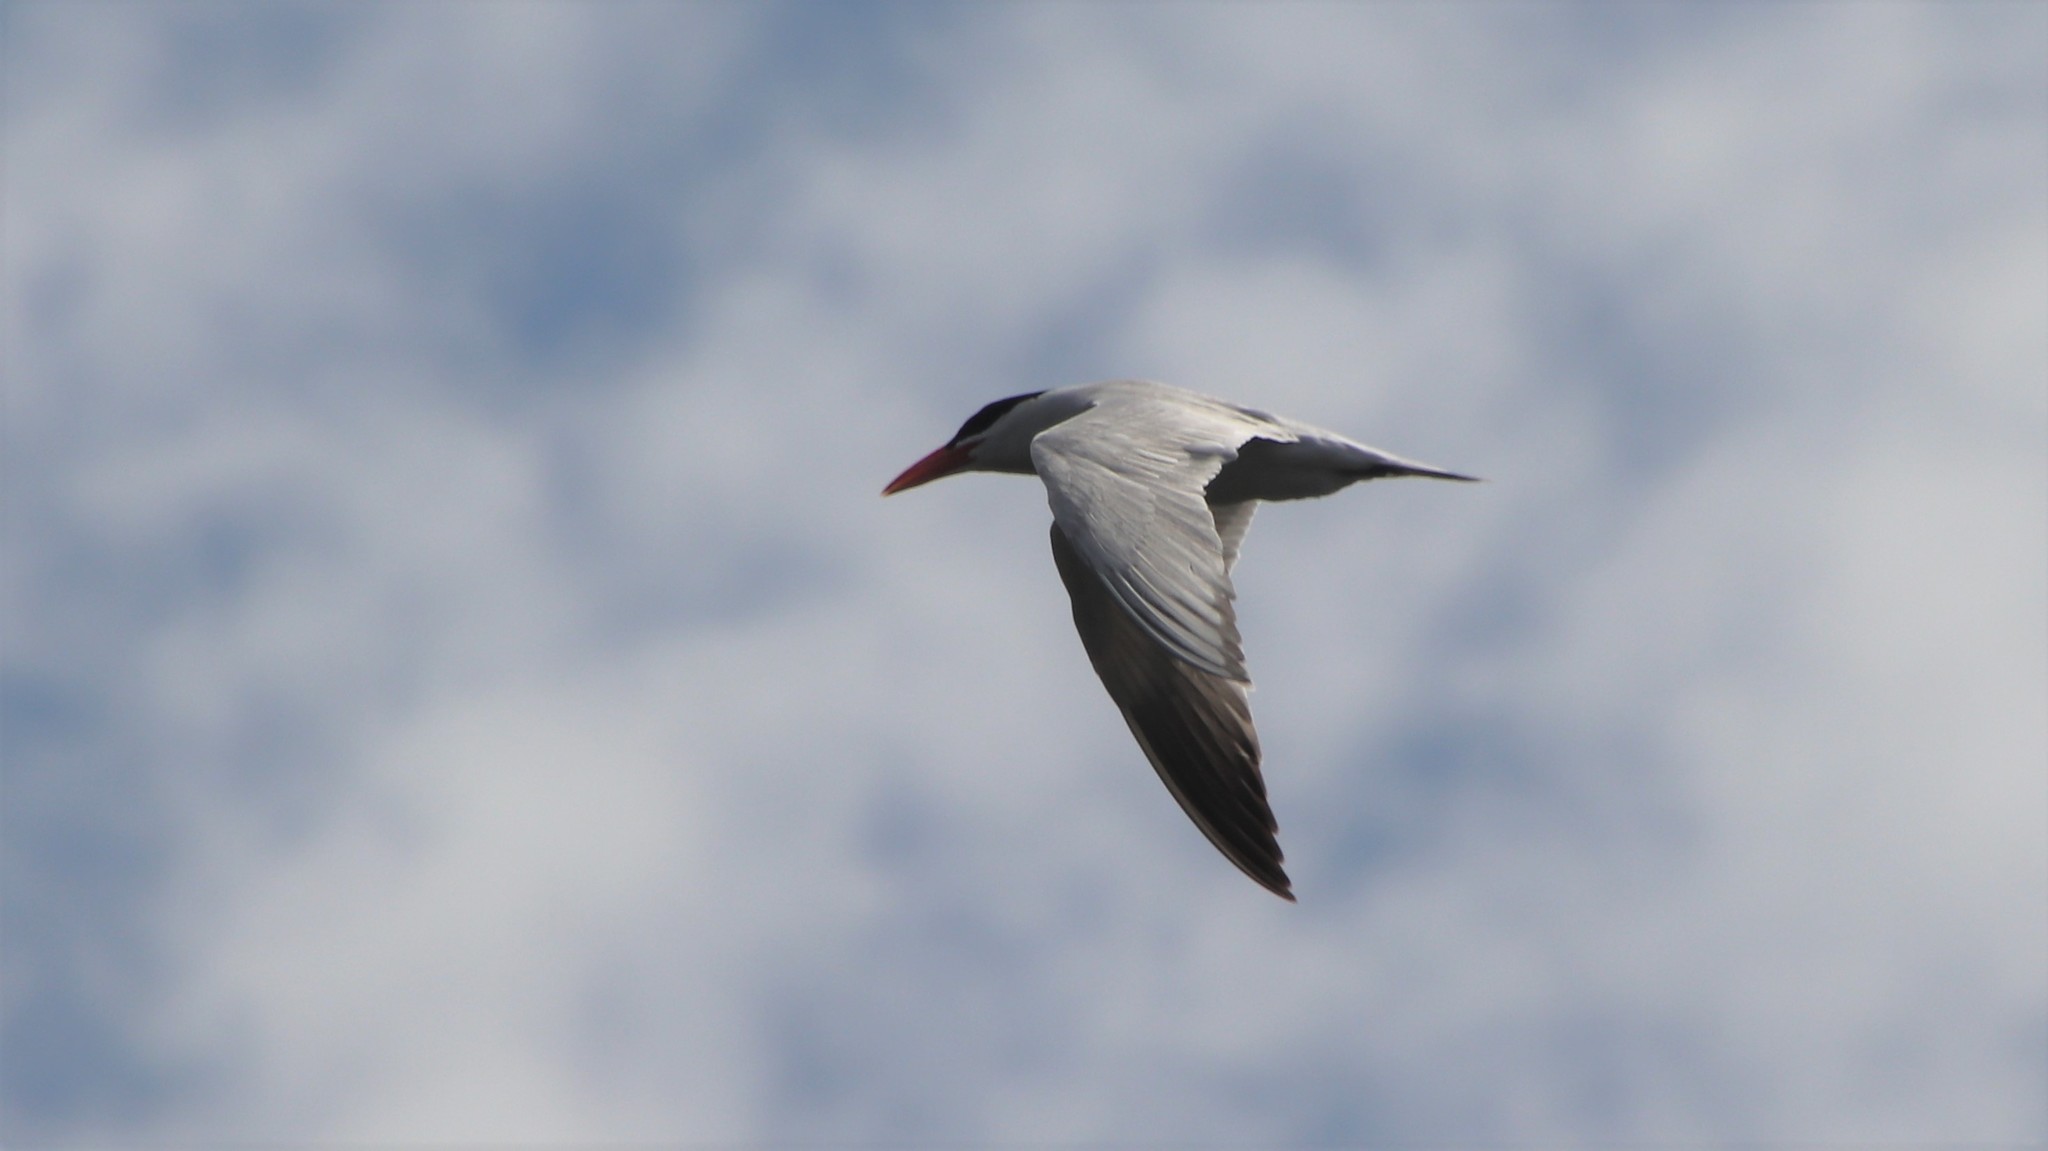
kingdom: Animalia
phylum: Chordata
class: Aves
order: Charadriiformes
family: Laridae
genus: Hydroprogne
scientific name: Hydroprogne caspia
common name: Caspian tern
